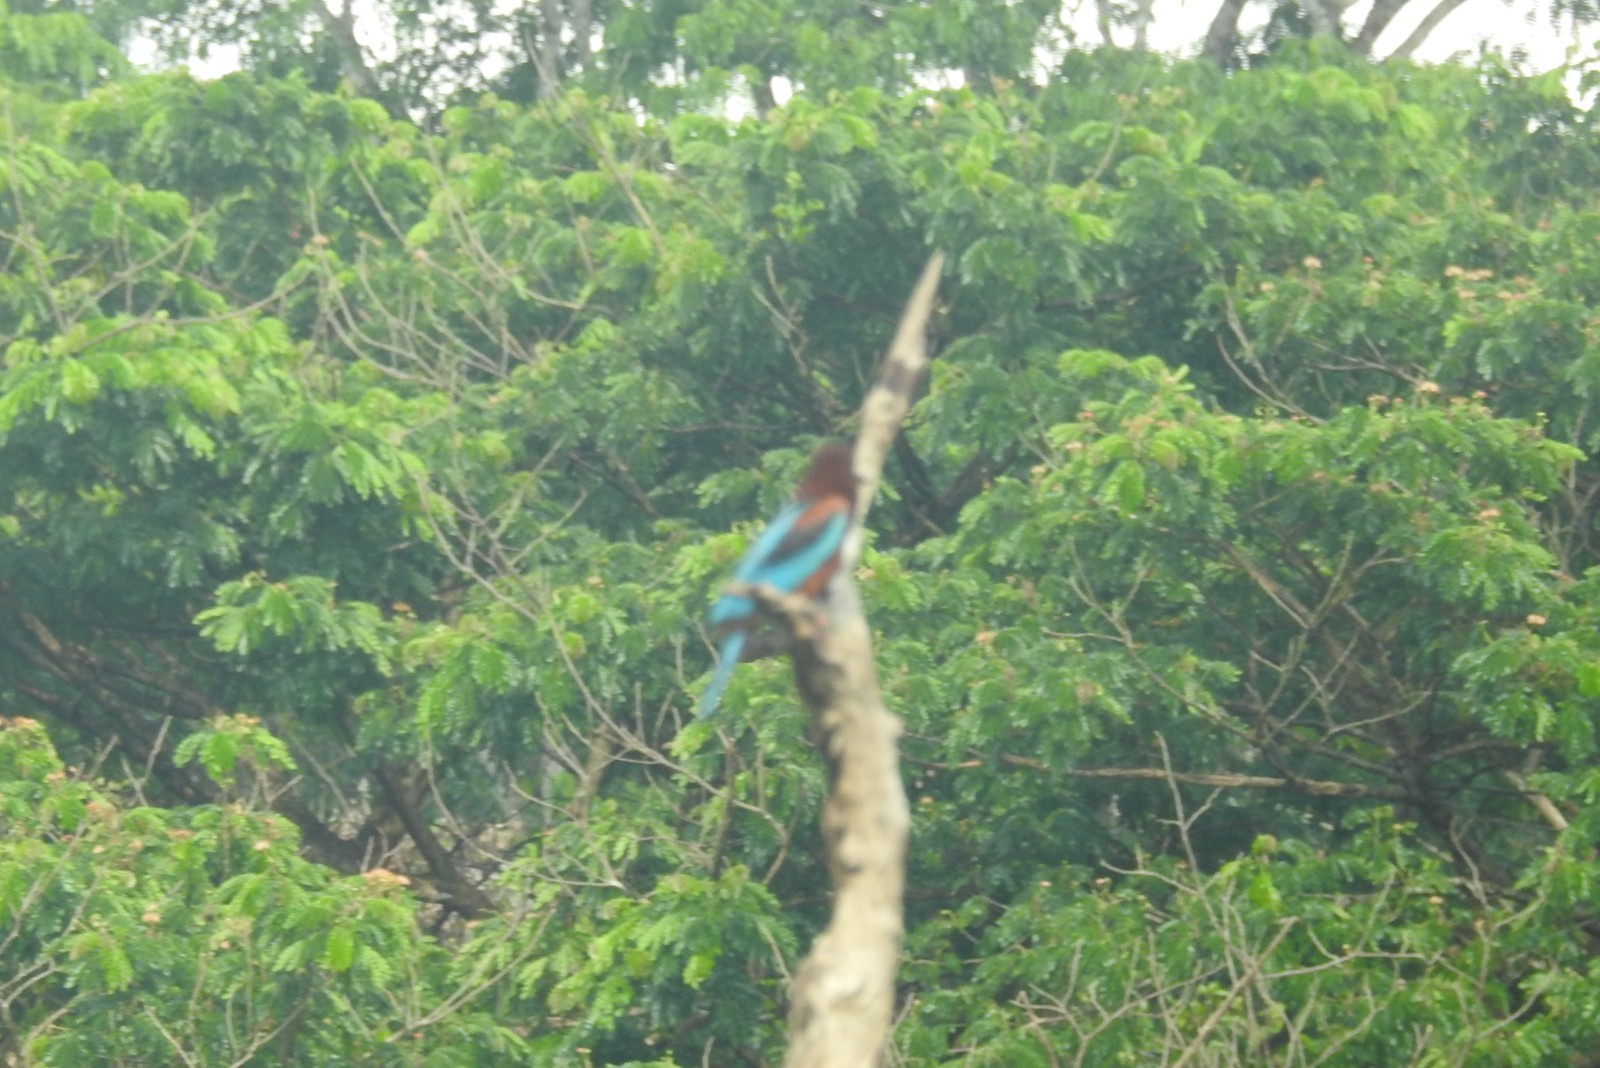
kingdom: Animalia
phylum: Chordata
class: Aves
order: Coraciiformes
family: Alcedinidae
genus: Halcyon
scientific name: Halcyon smyrnensis
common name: White-throated kingfisher
